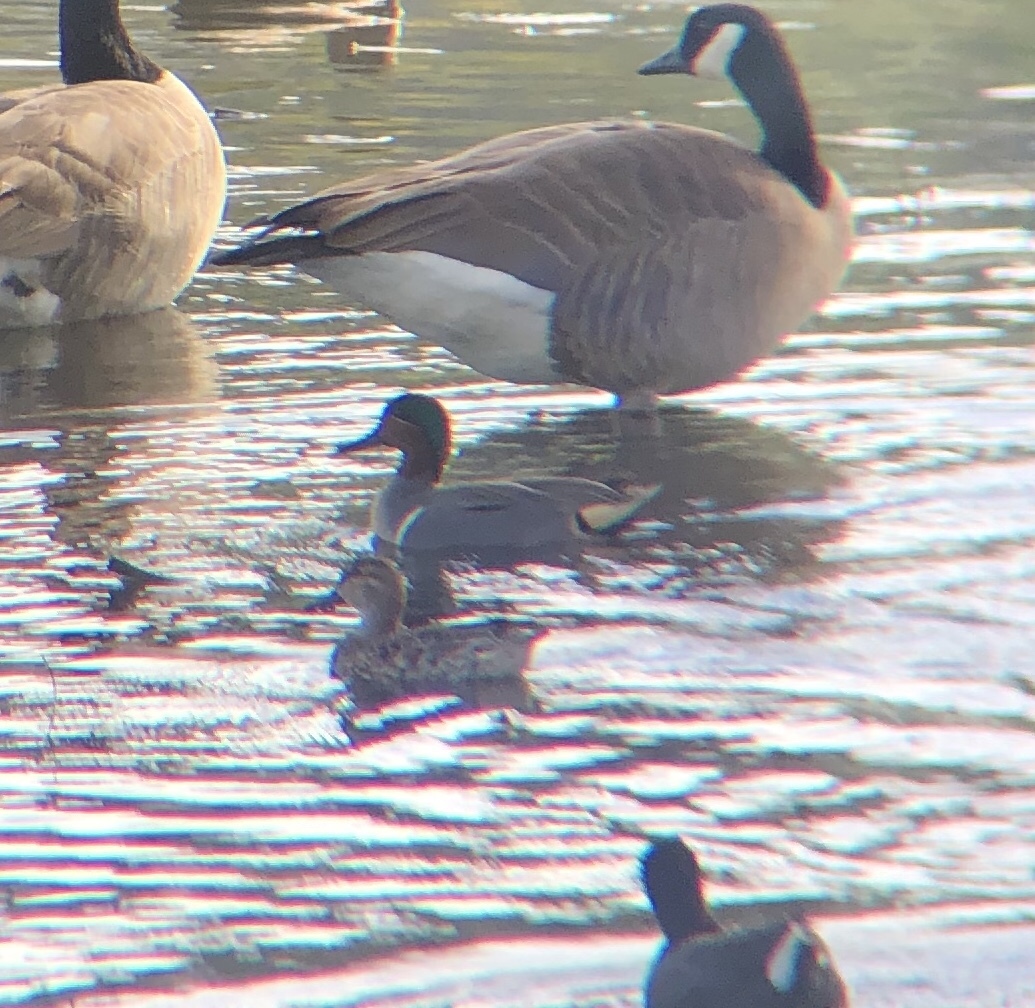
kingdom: Animalia
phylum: Chordata
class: Aves
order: Anseriformes
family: Anatidae
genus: Anas
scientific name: Anas crecca
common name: Eurasian teal
